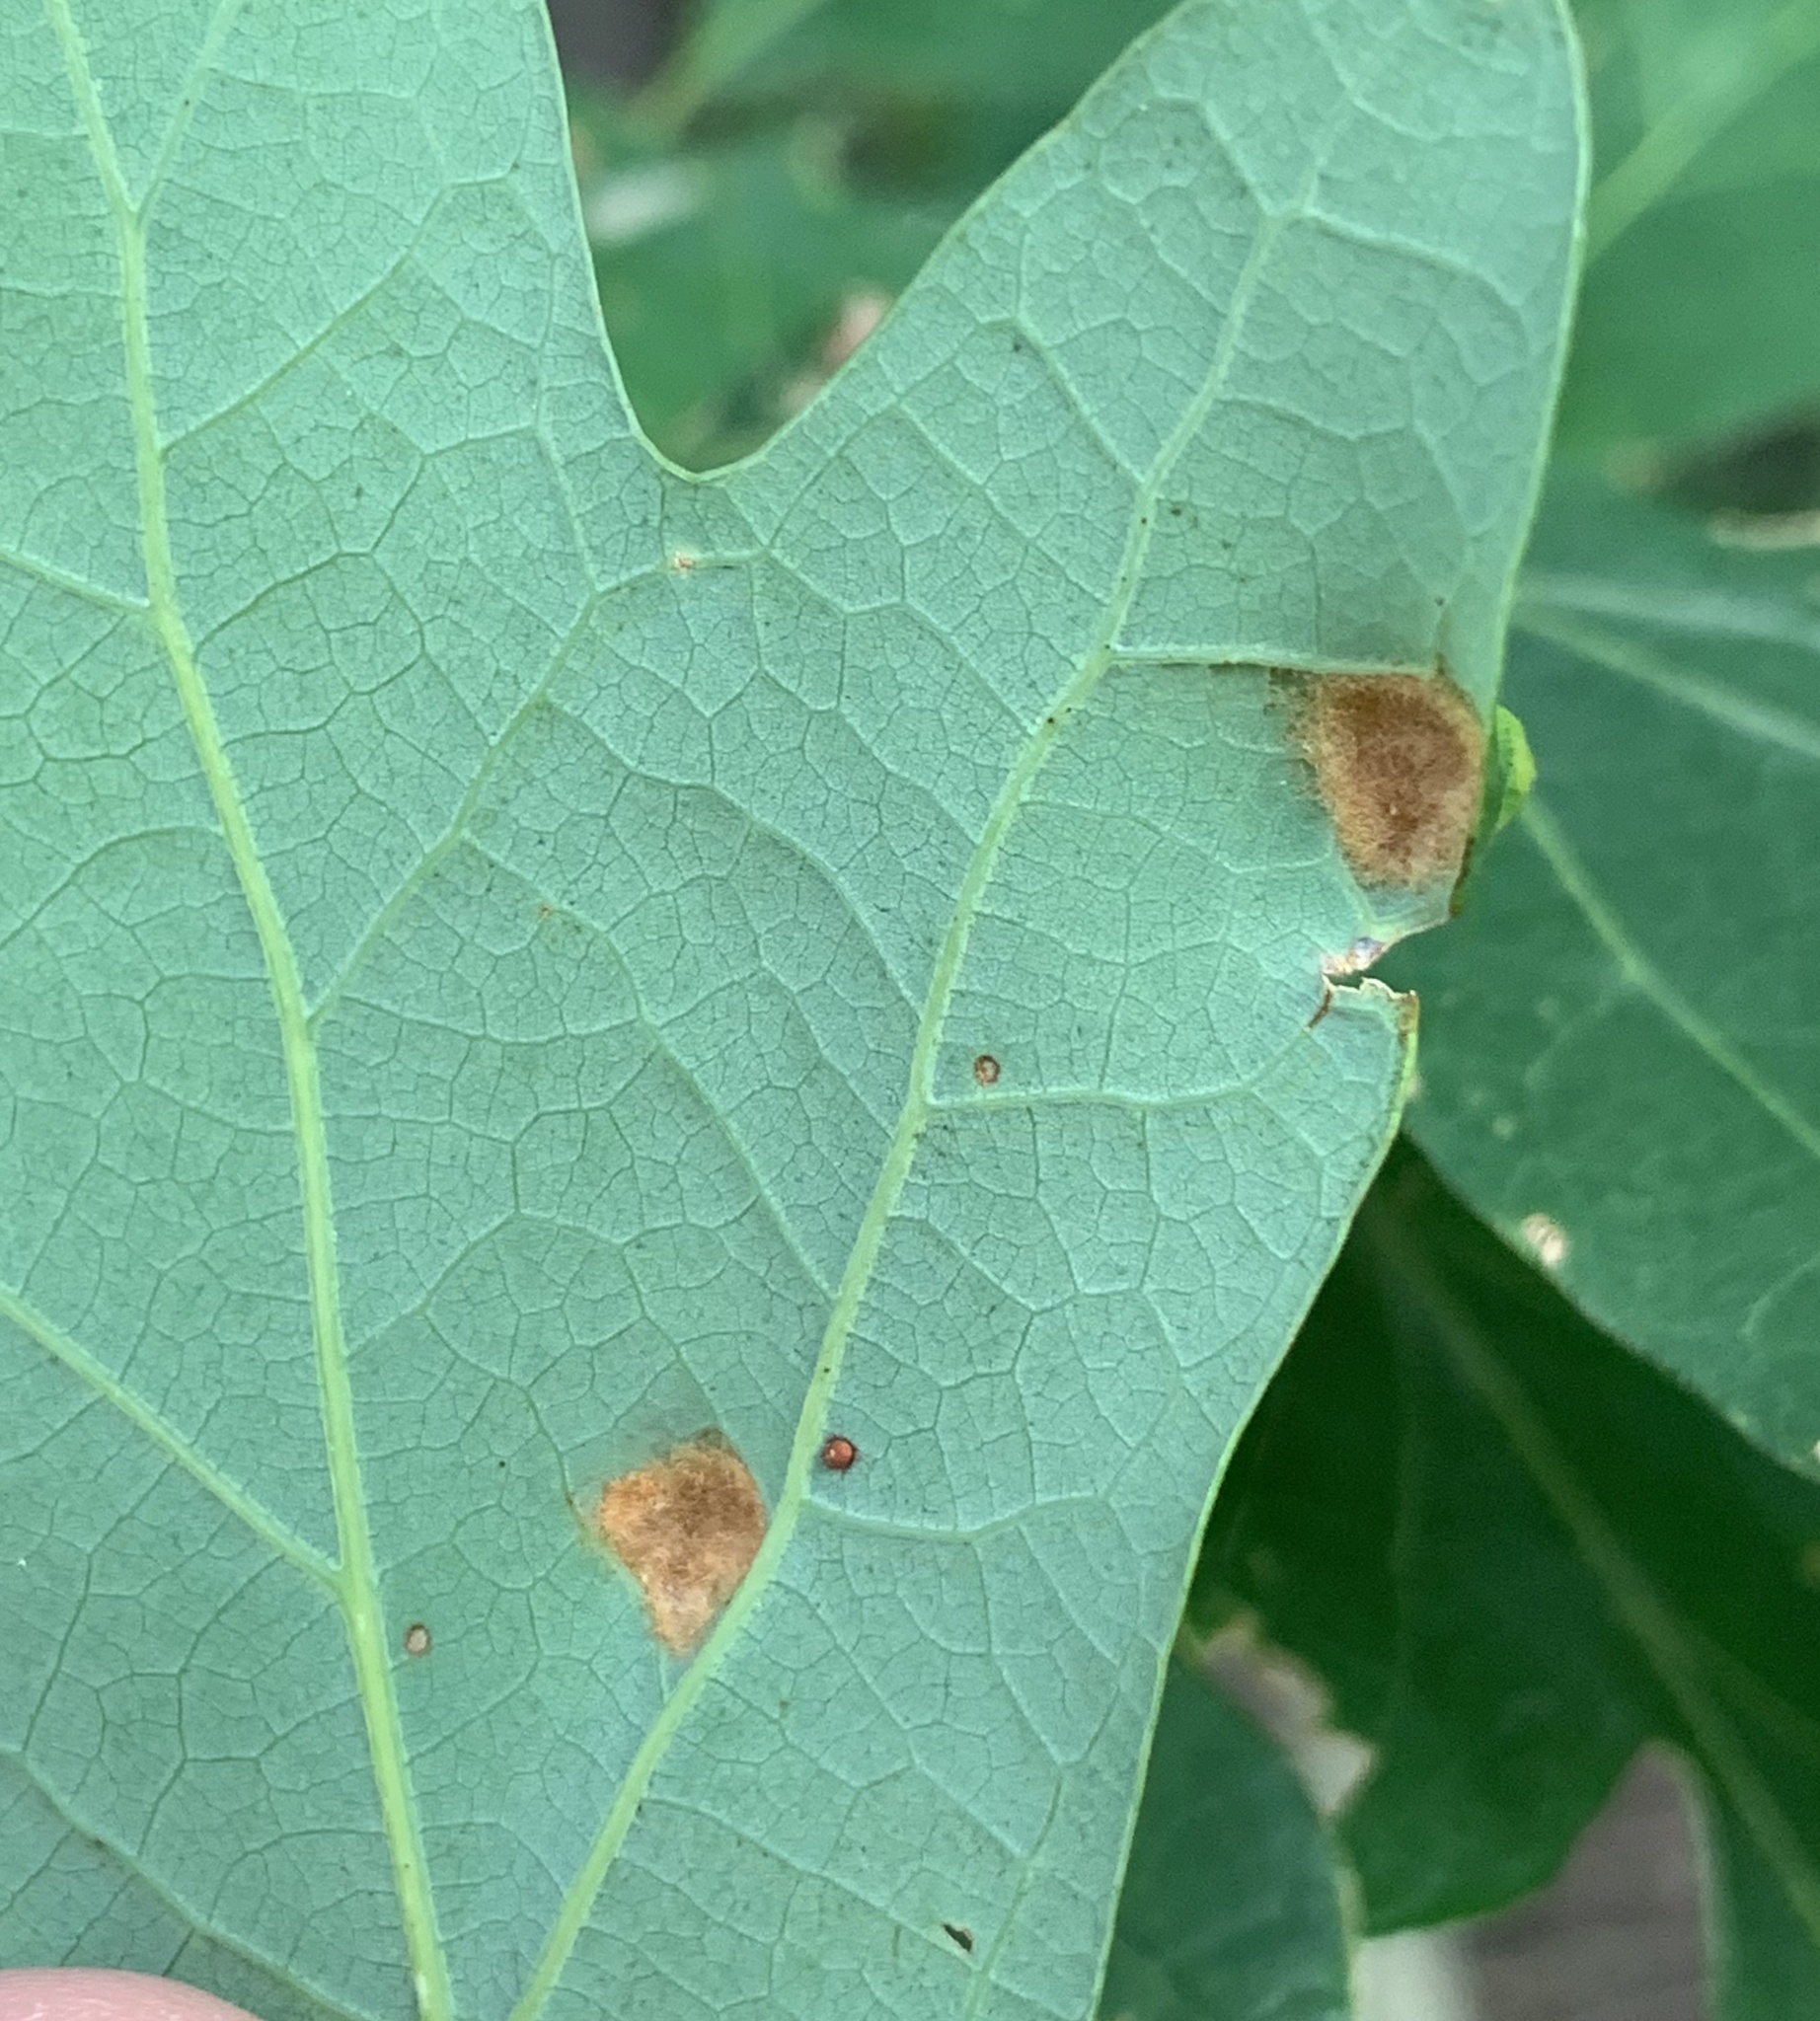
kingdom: Animalia
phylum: Arthropoda
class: Arachnida
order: Trombidiformes
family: Eriophyidae
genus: Aceria
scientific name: Aceria
